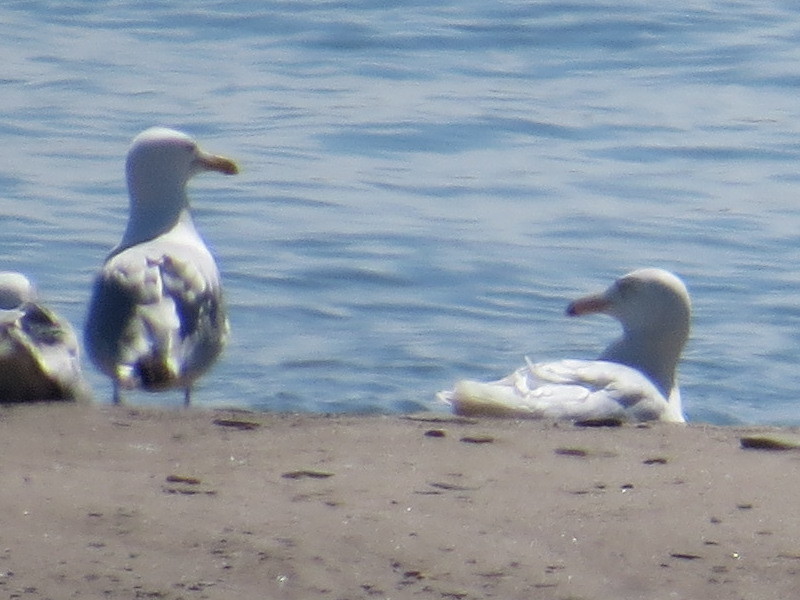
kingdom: Animalia
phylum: Chordata
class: Aves
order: Charadriiformes
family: Laridae
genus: Larus
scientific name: Larus argentatus
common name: Herring gull
